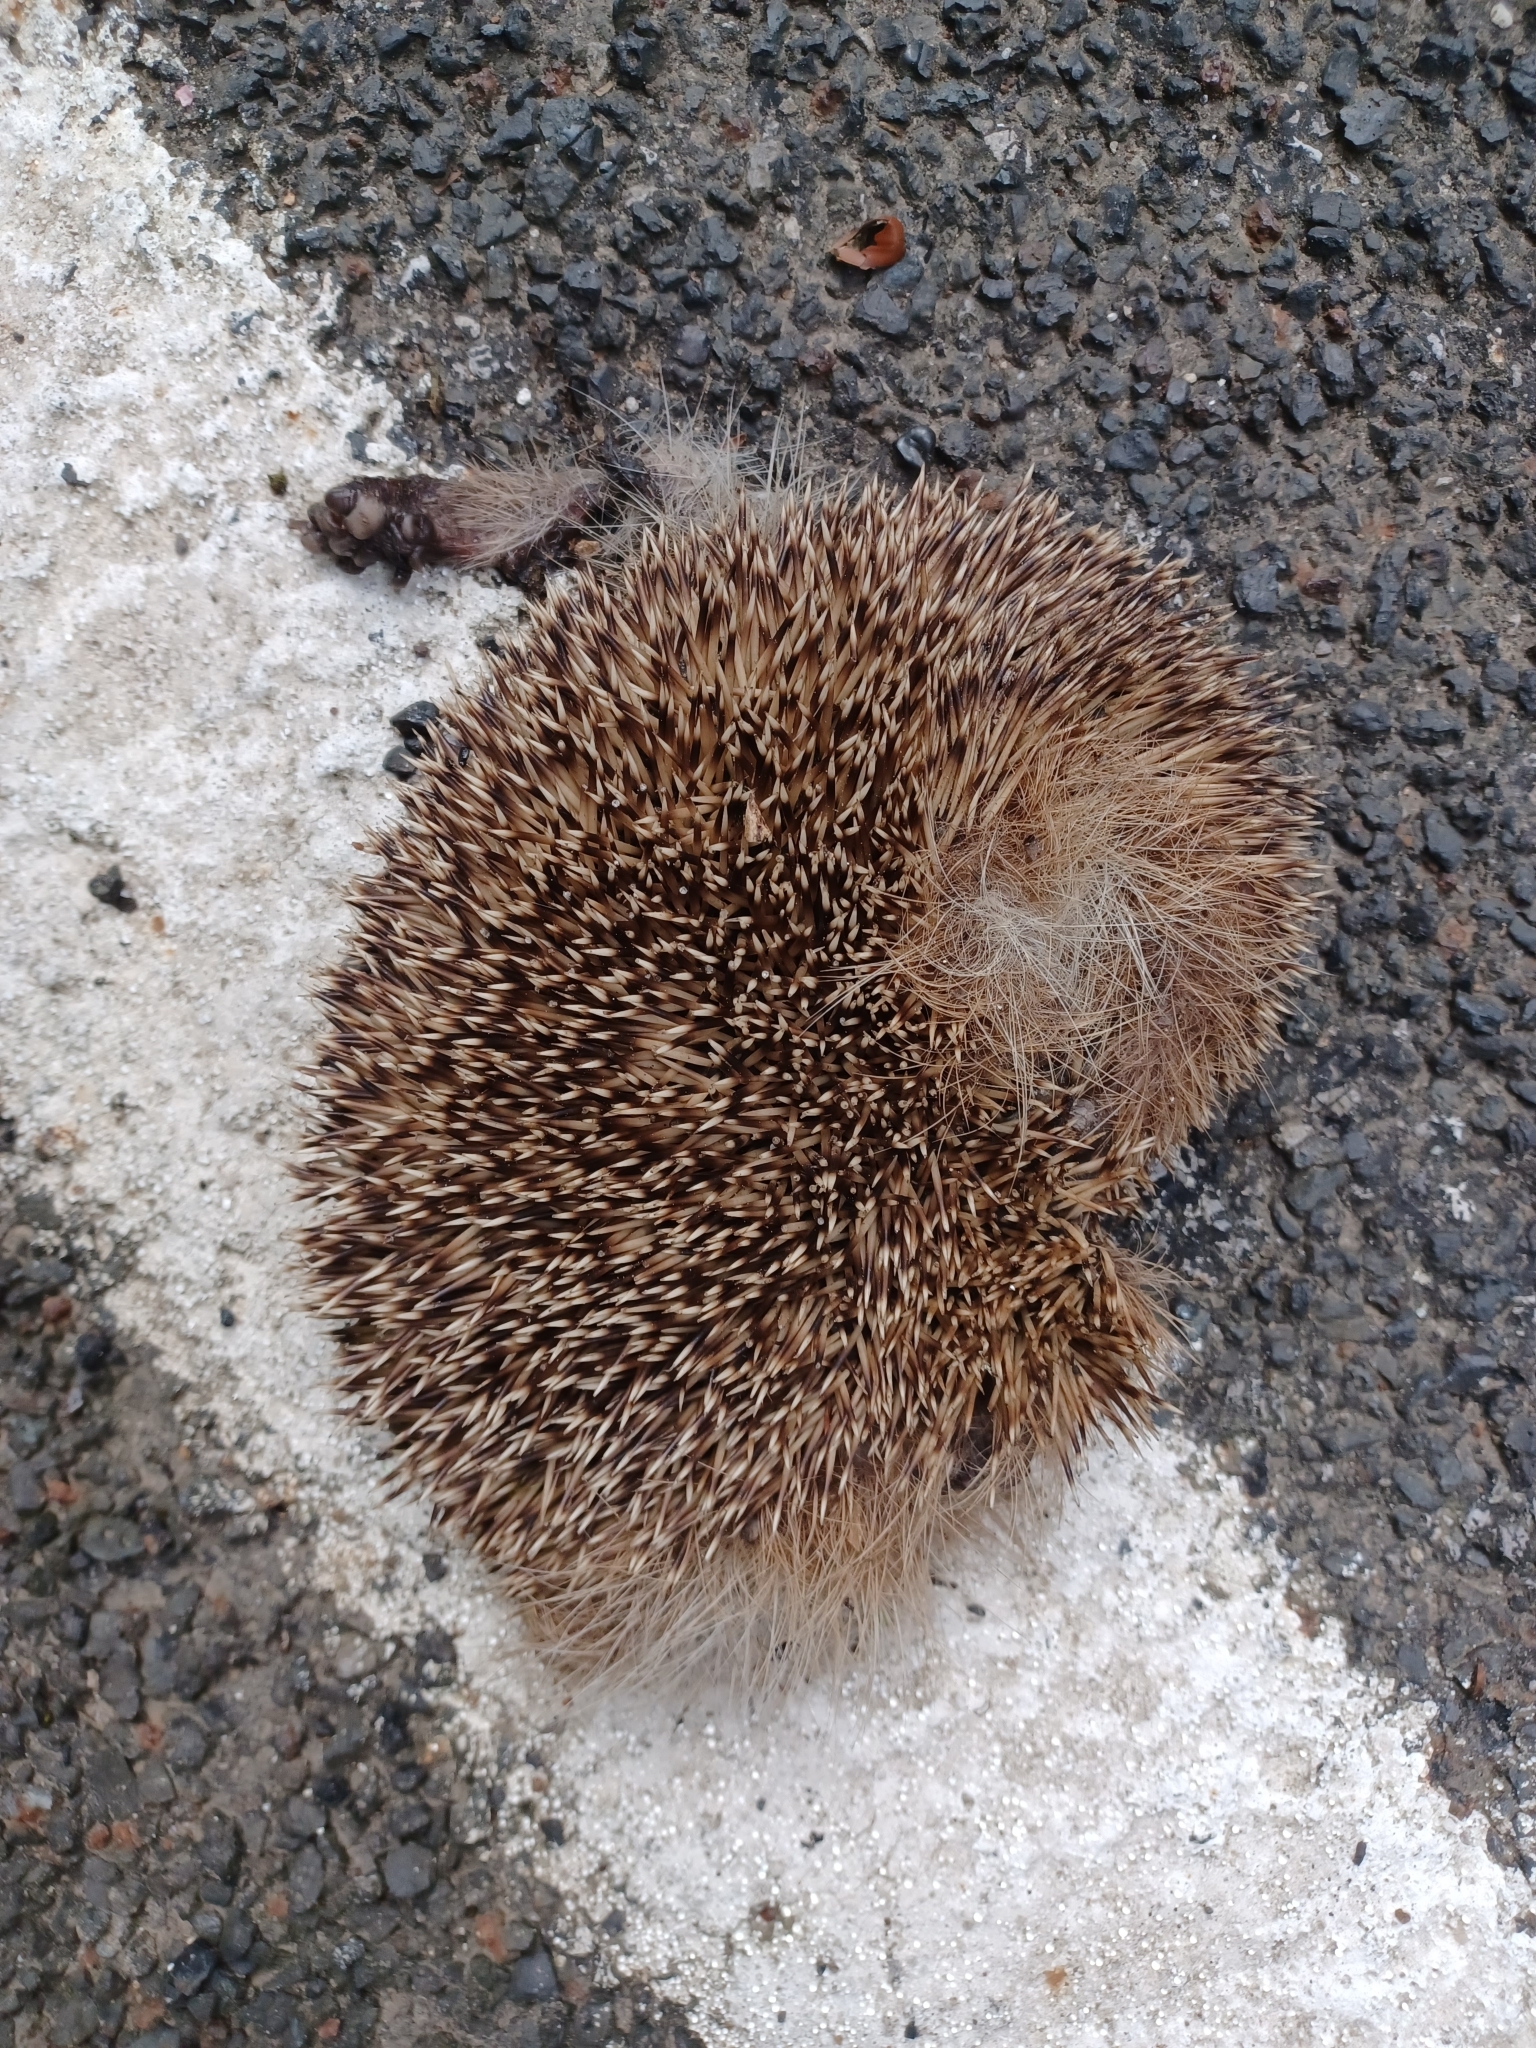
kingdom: Animalia
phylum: Chordata
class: Mammalia
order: Erinaceomorpha
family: Erinaceidae
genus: Erinaceus
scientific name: Erinaceus europaeus
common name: West european hedgehog
